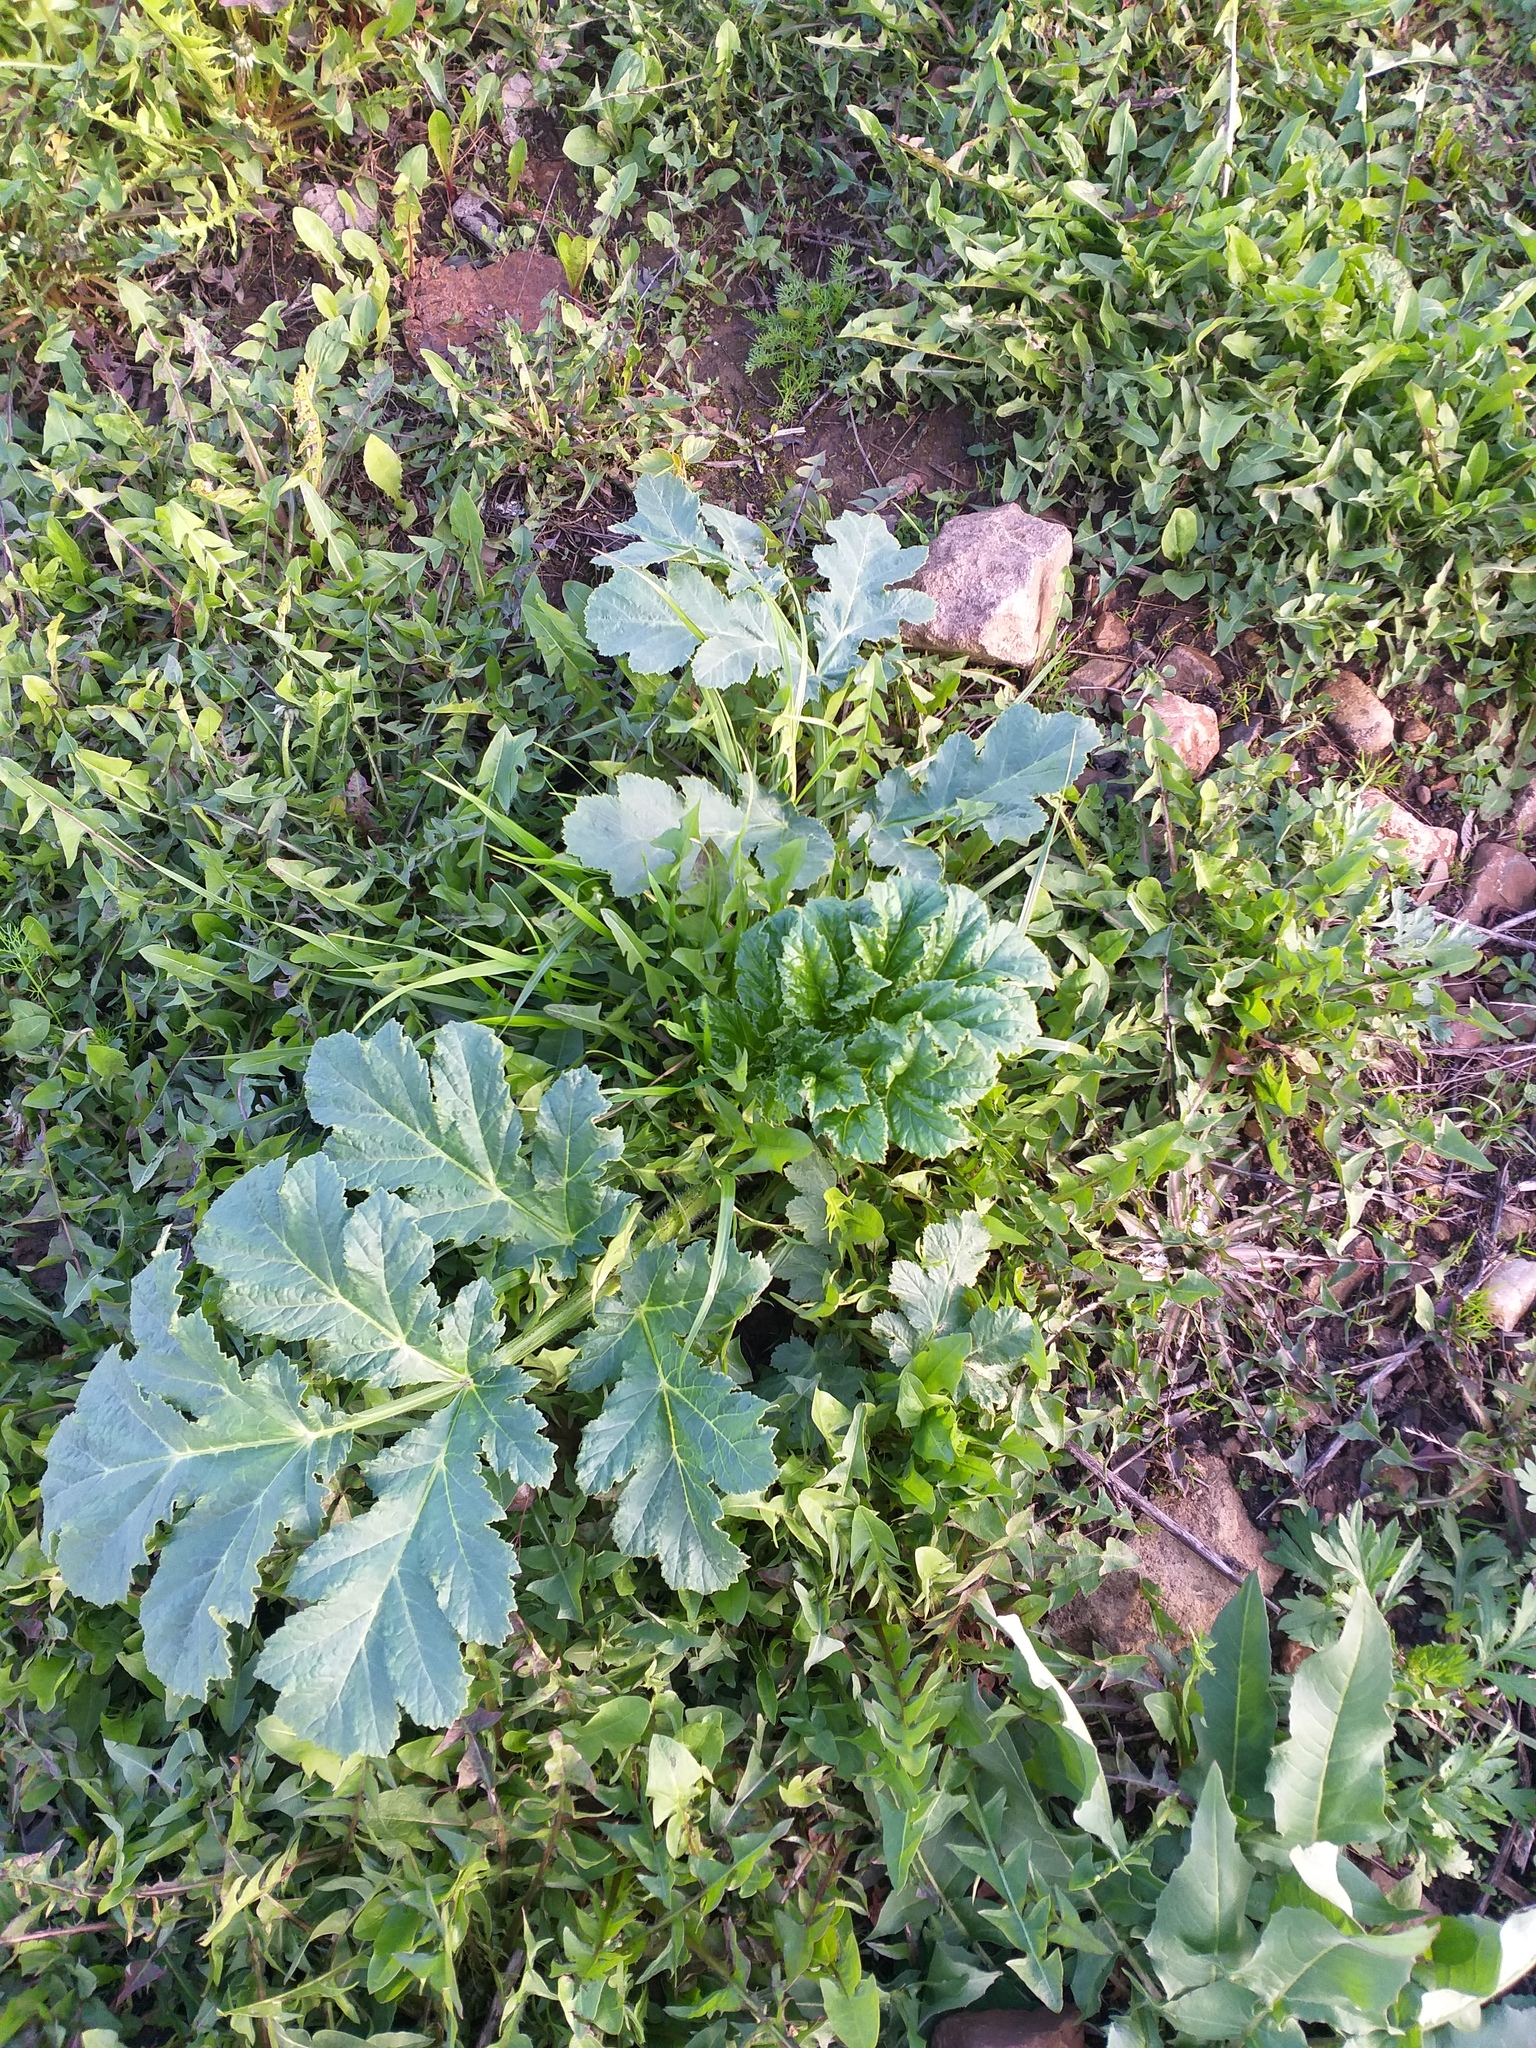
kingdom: Plantae
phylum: Tracheophyta
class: Magnoliopsida
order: Apiales
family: Apiaceae
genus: Heracleum
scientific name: Heracleum sosnowskyi
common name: Sosnowsky's hogweed
